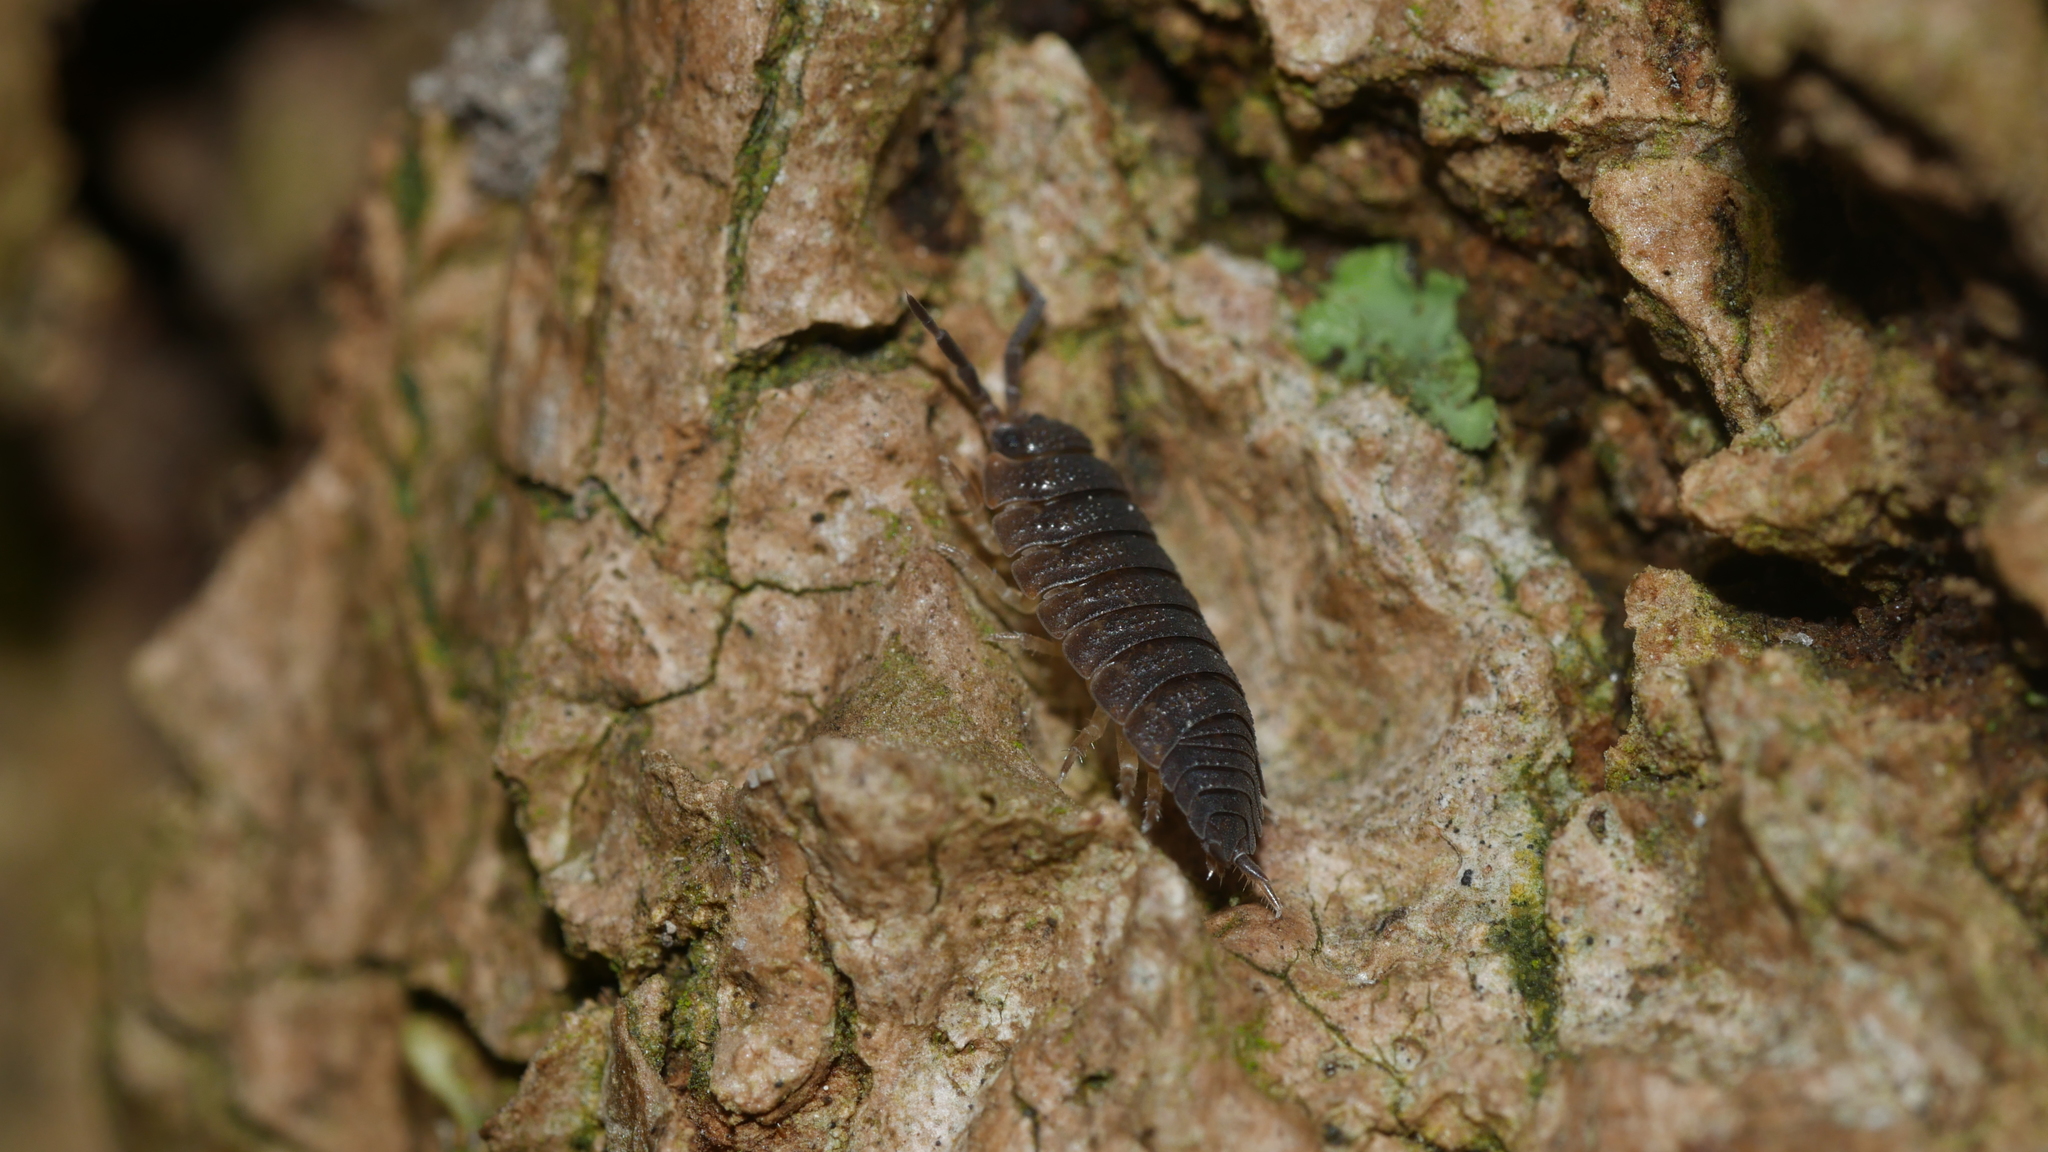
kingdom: Animalia
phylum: Arthropoda
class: Malacostraca
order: Isopoda
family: Porcellionidae
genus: Porcellio
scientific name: Porcellio scaber
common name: Common rough woodlouse
